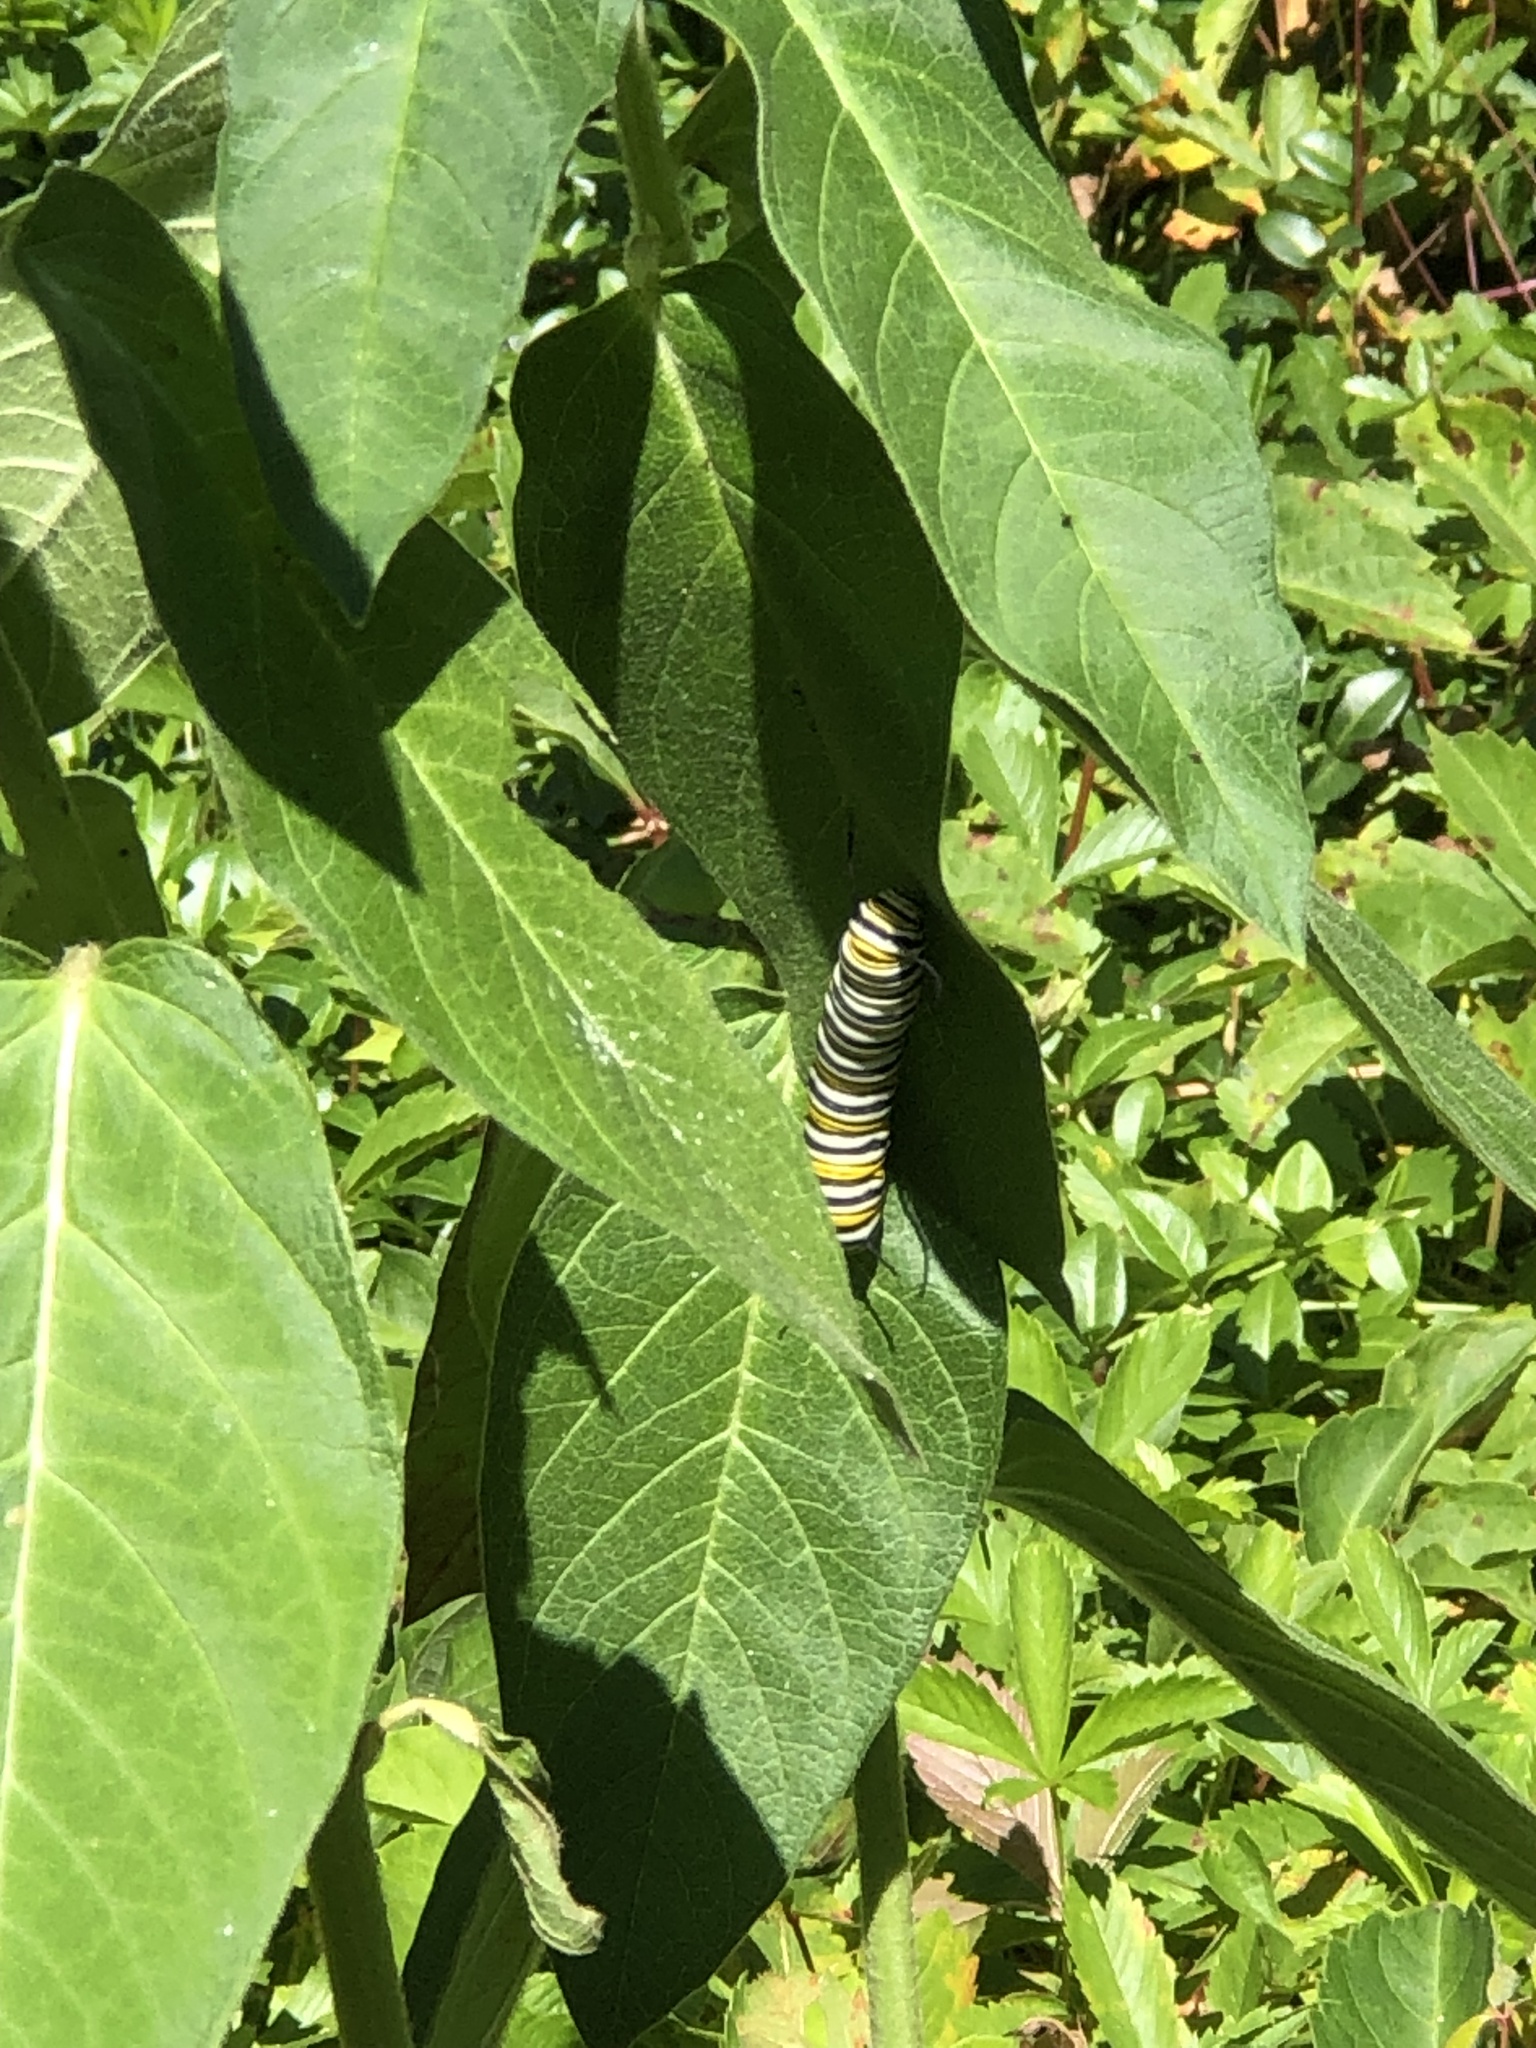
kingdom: Animalia
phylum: Arthropoda
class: Insecta
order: Lepidoptera
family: Nymphalidae
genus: Danaus
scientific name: Danaus plexippus
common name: Monarch
